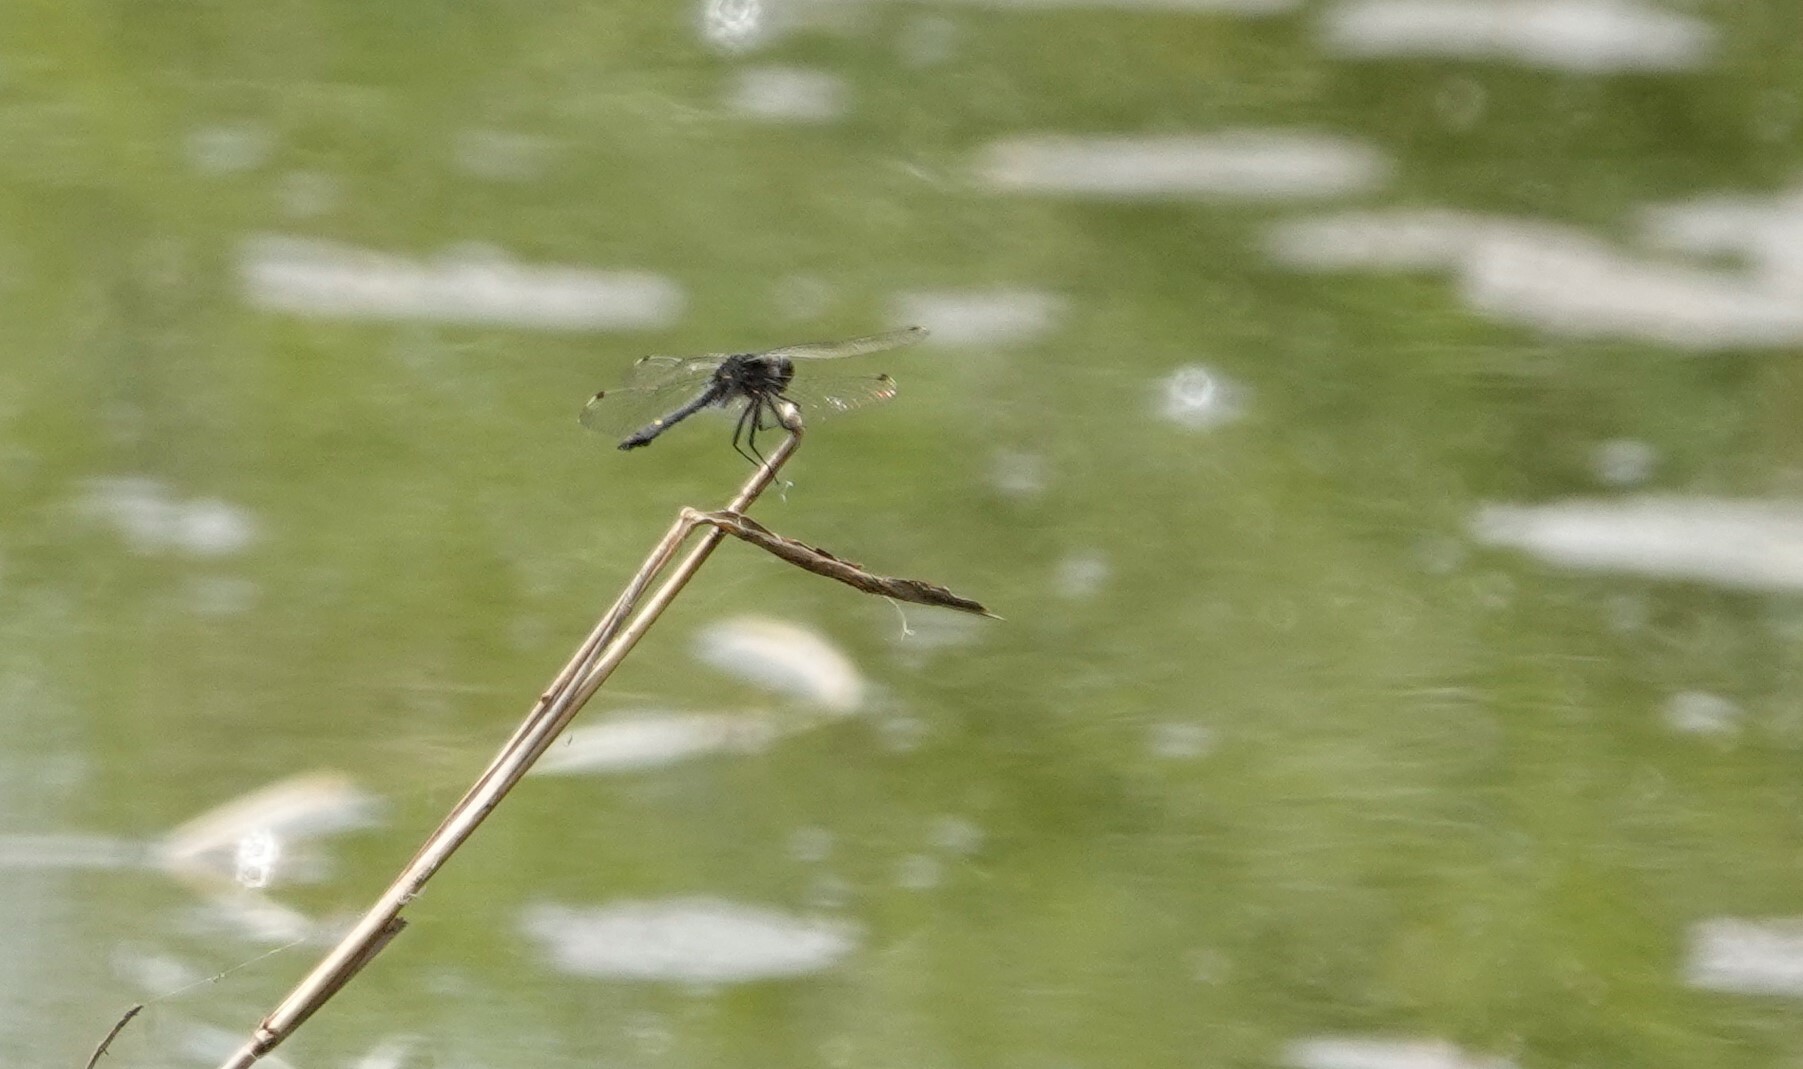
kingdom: Animalia
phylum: Arthropoda
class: Insecta
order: Odonata
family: Libellulidae
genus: Leucorrhinia
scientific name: Leucorrhinia intacta
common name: Dot-tailed whiteface
